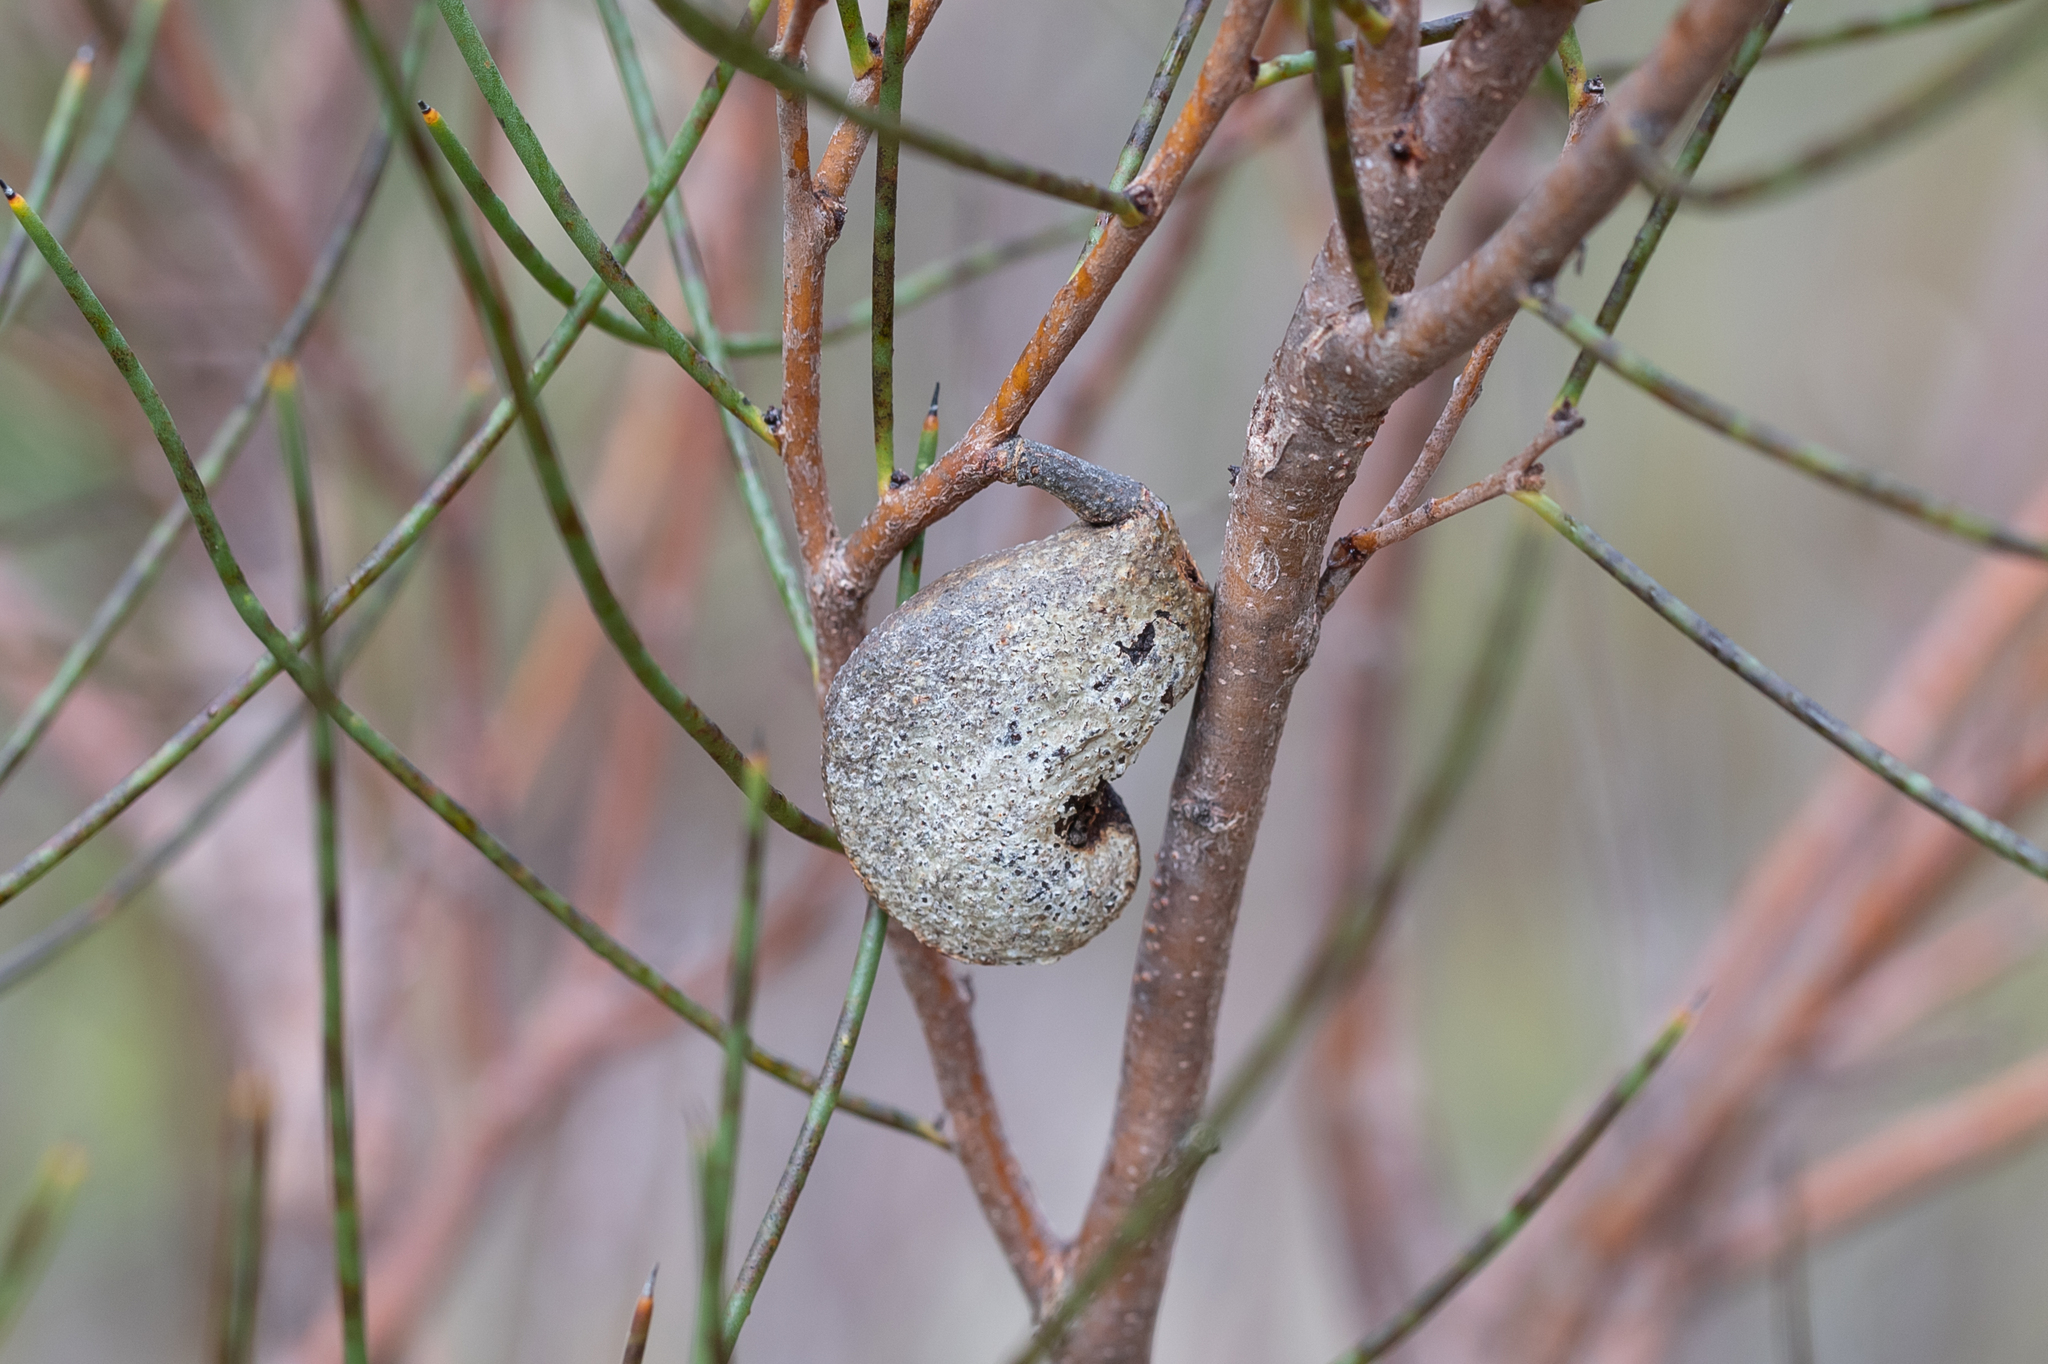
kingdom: Plantae
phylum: Tracheophyta
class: Magnoliopsida
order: Proteales
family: Proteaceae
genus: Hakea
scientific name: Hakea rostrata
